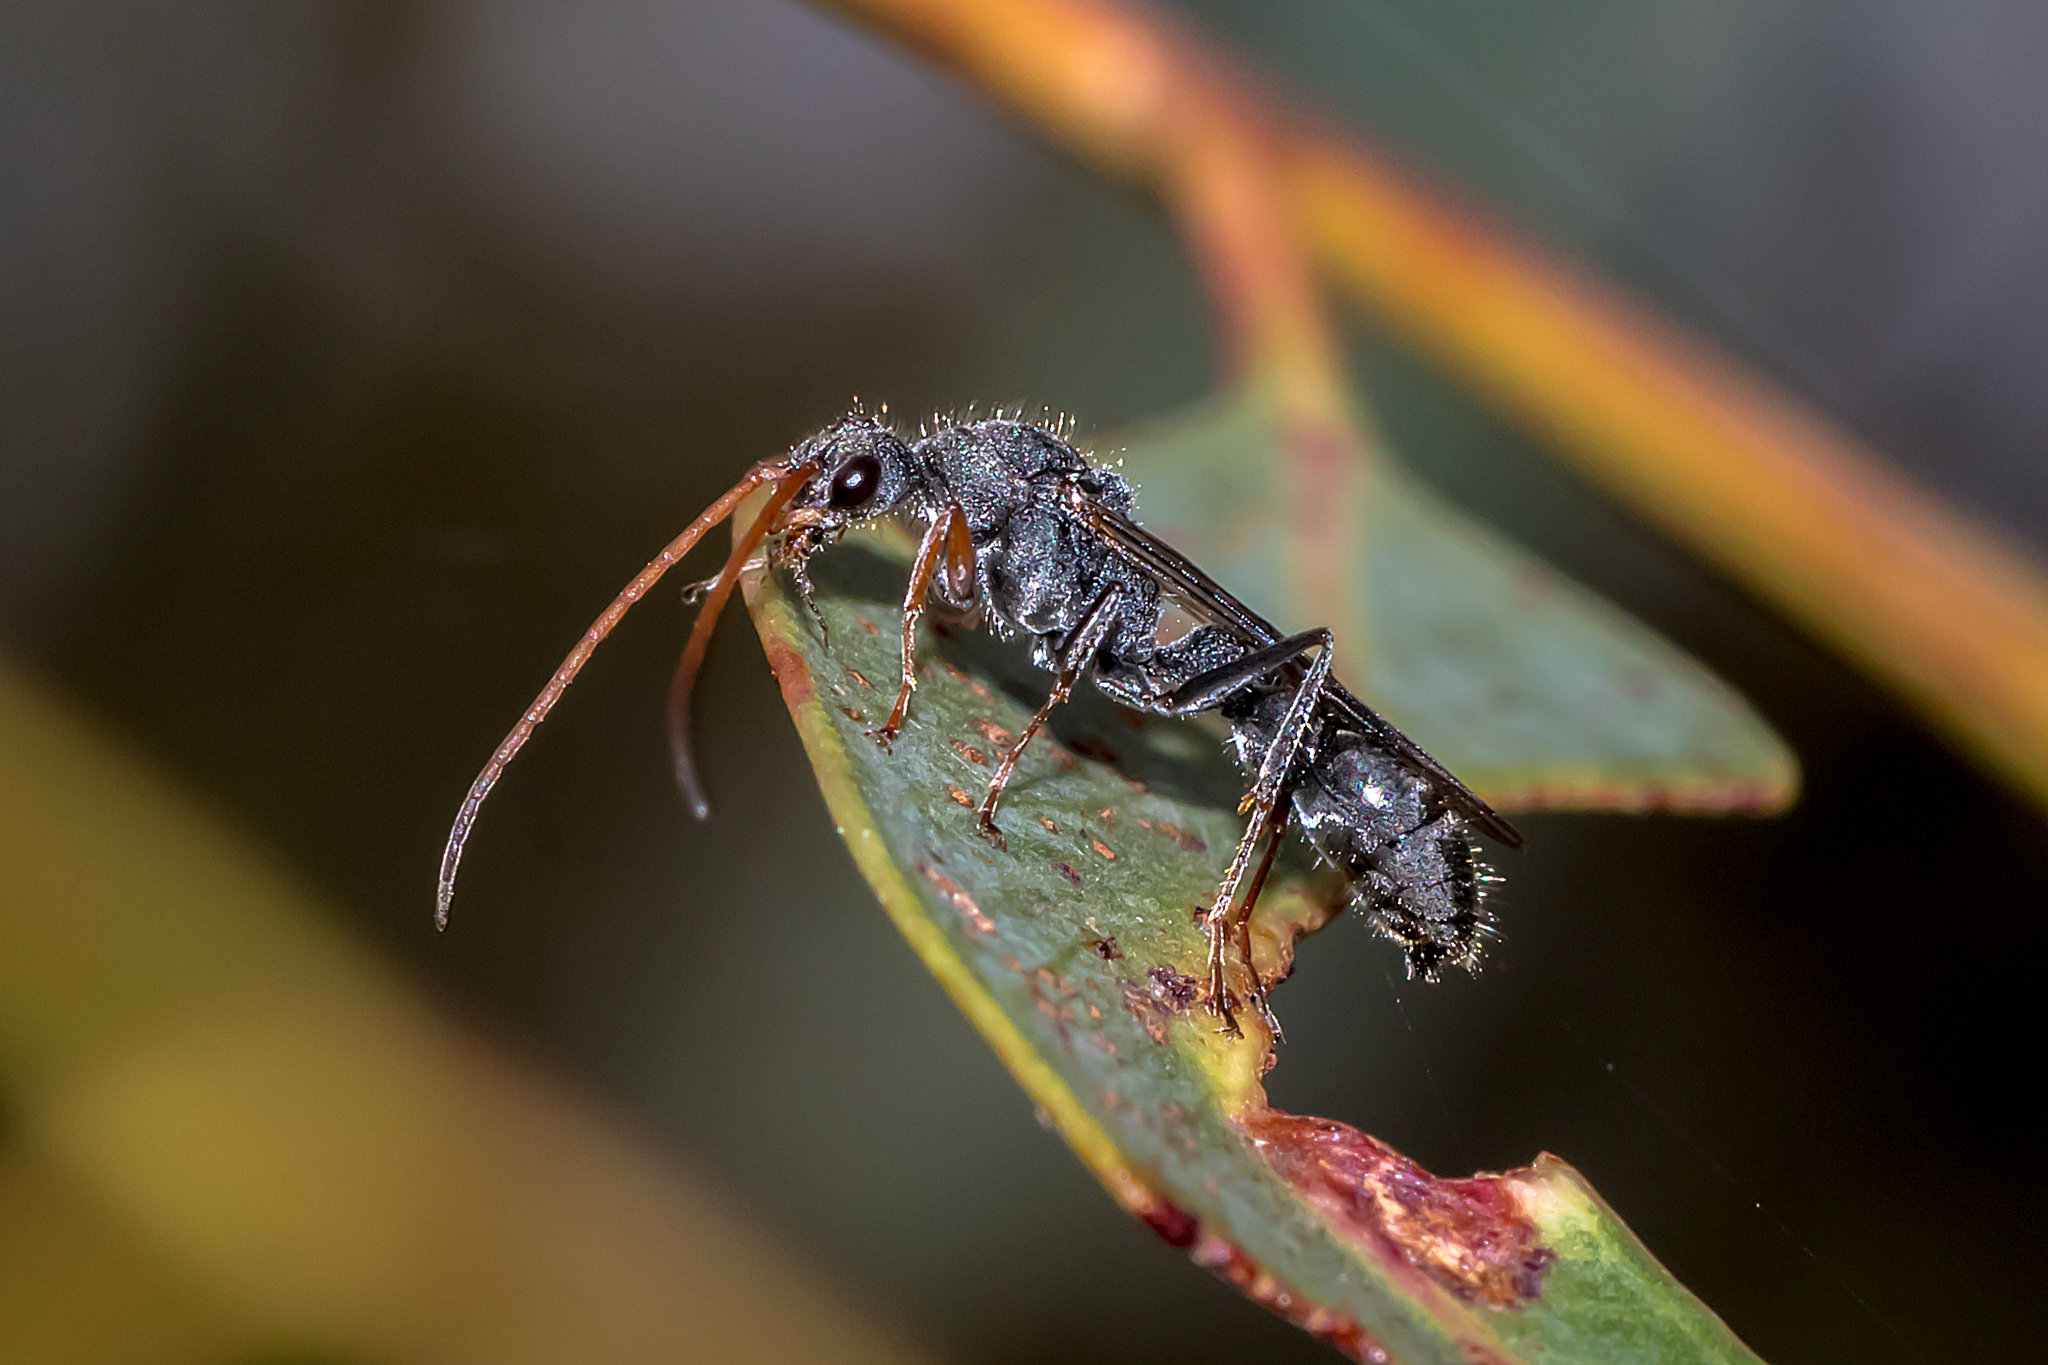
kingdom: Animalia
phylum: Arthropoda
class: Insecta
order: Hymenoptera
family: Formicidae
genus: Myrmecia
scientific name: Myrmecia urens
